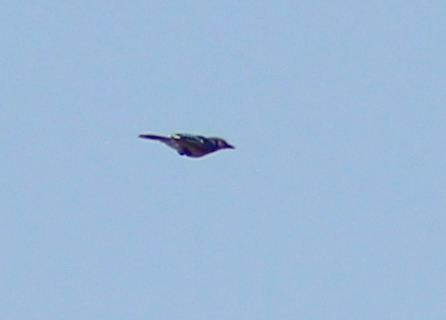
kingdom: Animalia
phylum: Chordata
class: Aves
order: Passeriformes
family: Corvidae
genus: Cyanocitta
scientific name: Cyanocitta cristata
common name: Blue jay
